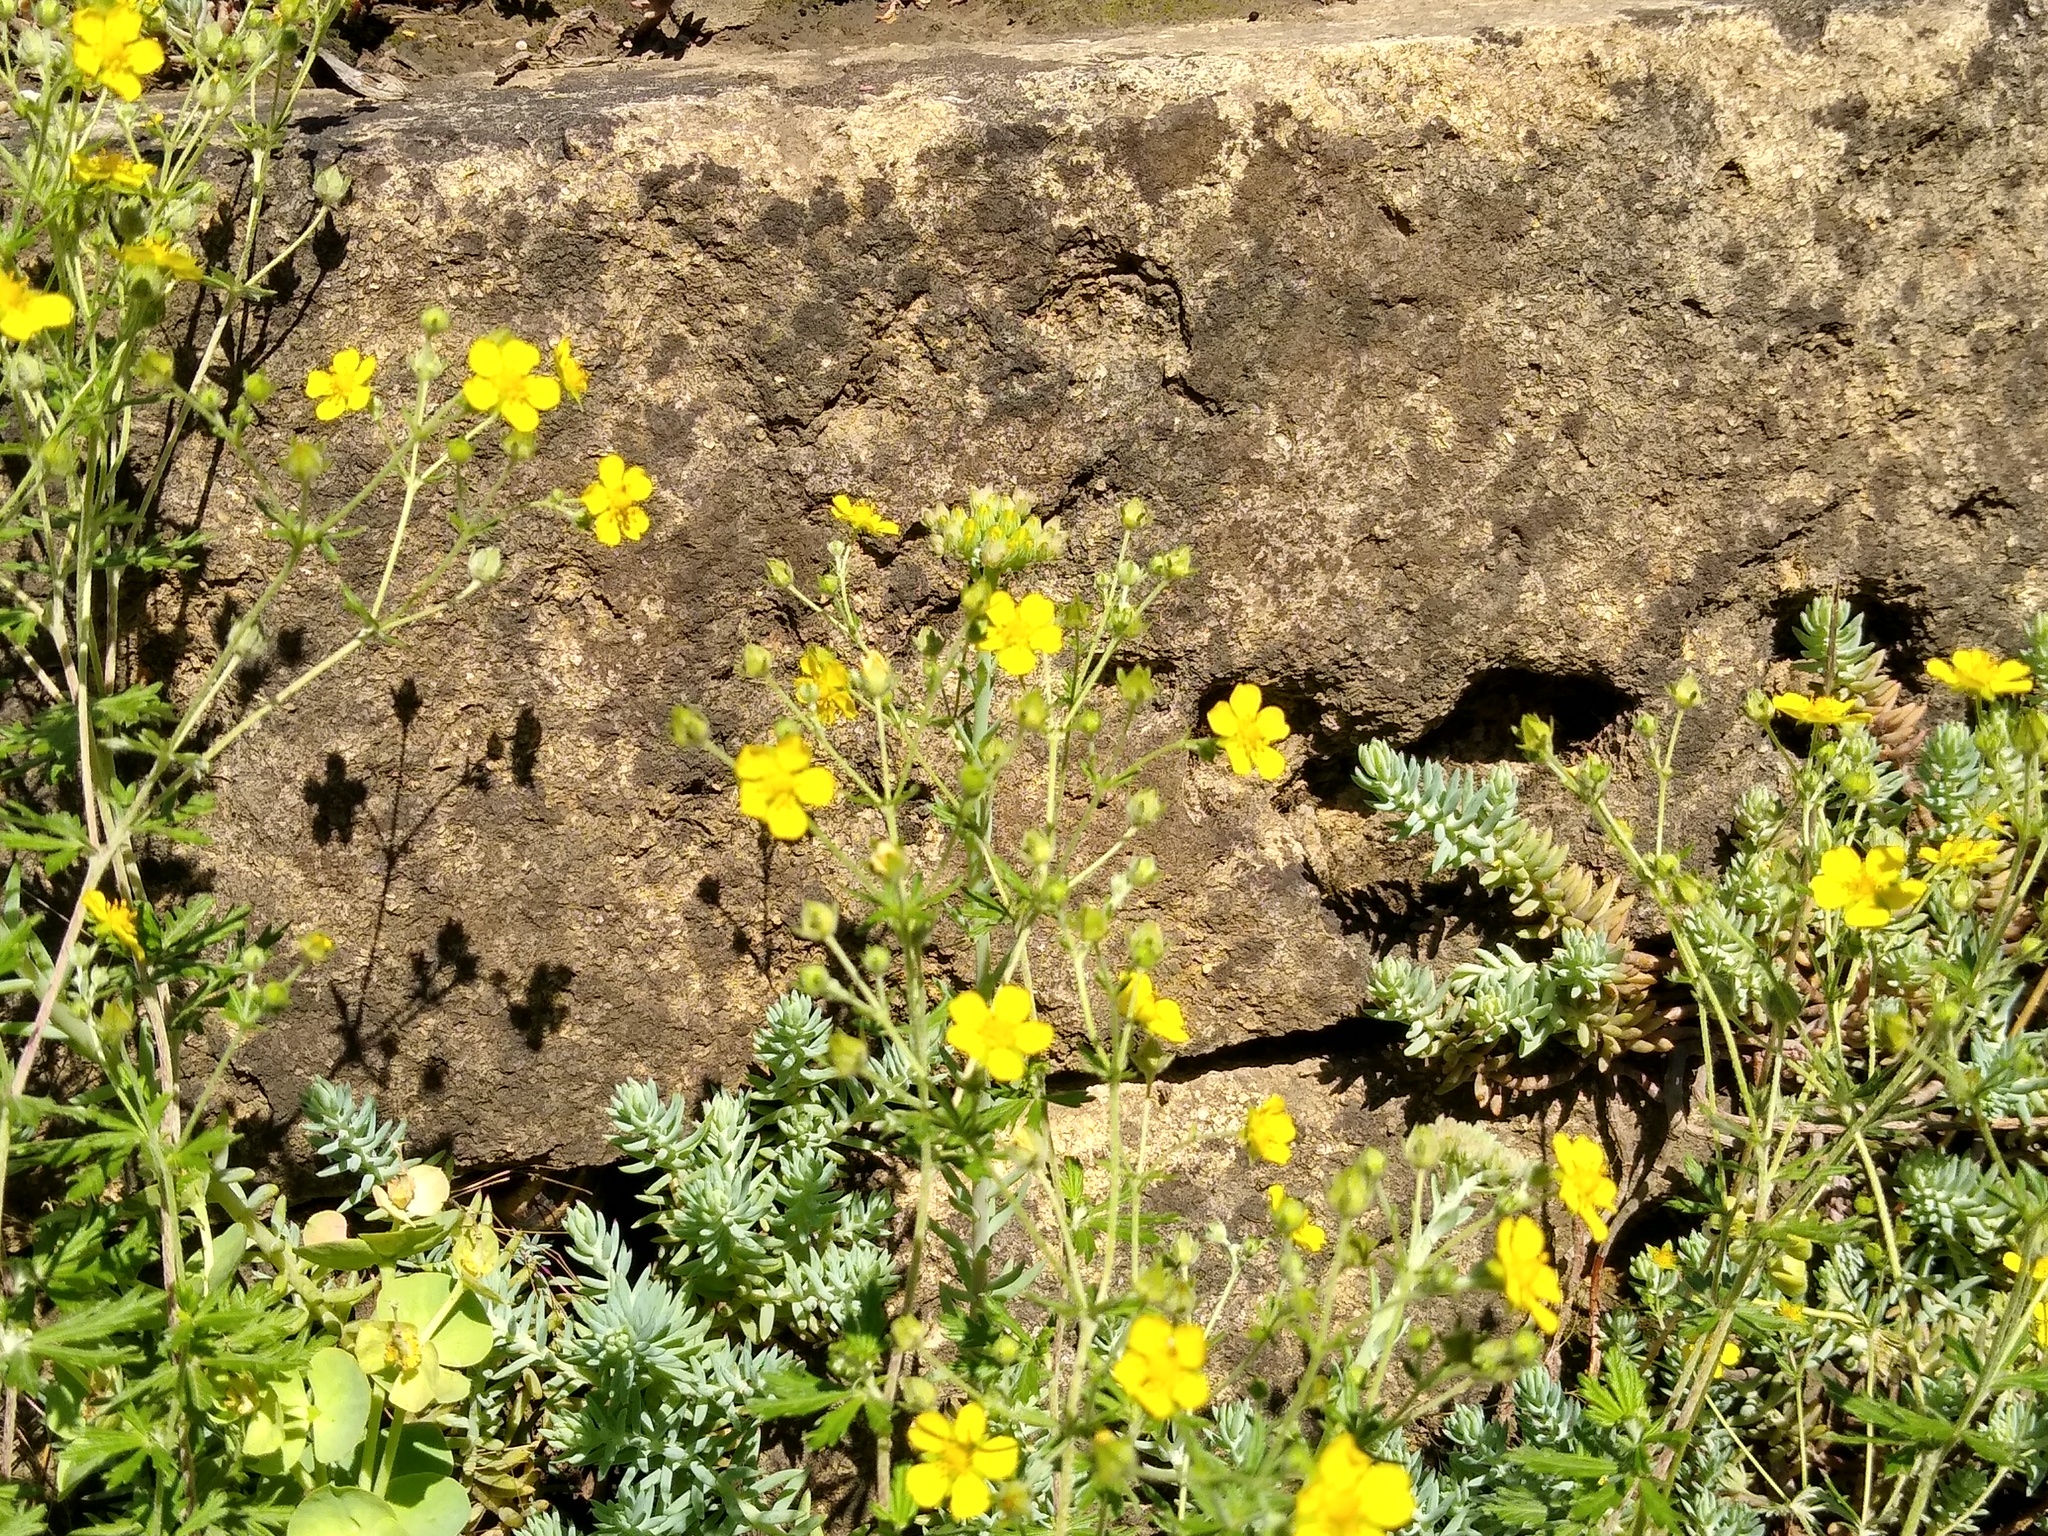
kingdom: Plantae
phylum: Tracheophyta
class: Magnoliopsida
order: Rosales
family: Rosaceae
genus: Potentilla
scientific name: Potentilla argentea
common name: Hoary cinquefoil
